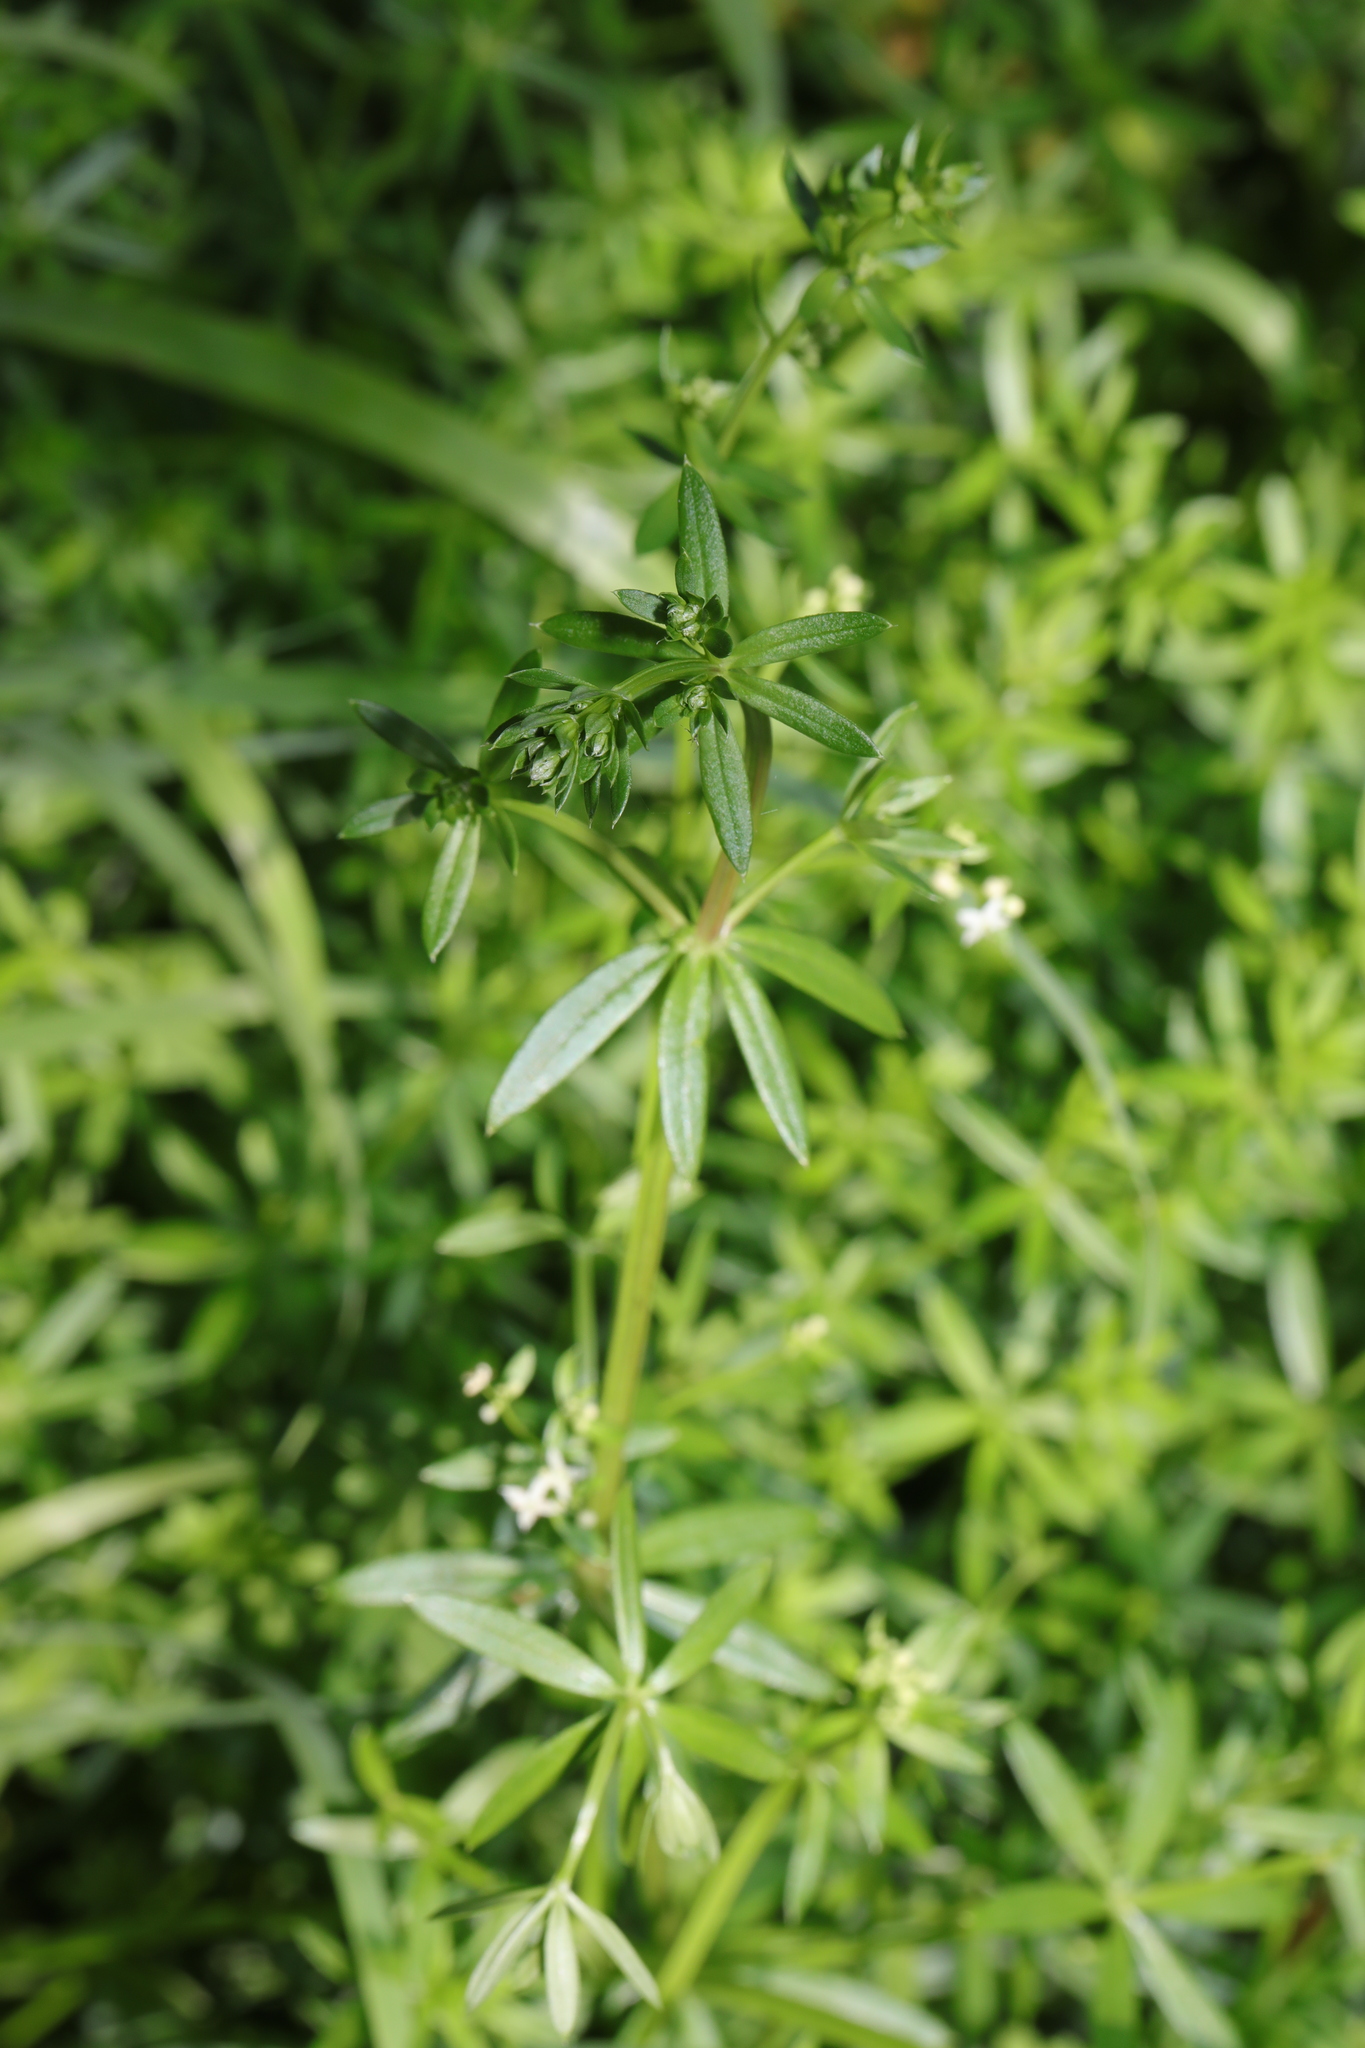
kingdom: Plantae
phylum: Tracheophyta
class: Magnoliopsida
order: Gentianales
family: Rubiaceae
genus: Galium
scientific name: Galium mollugo
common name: Hedge bedstraw
